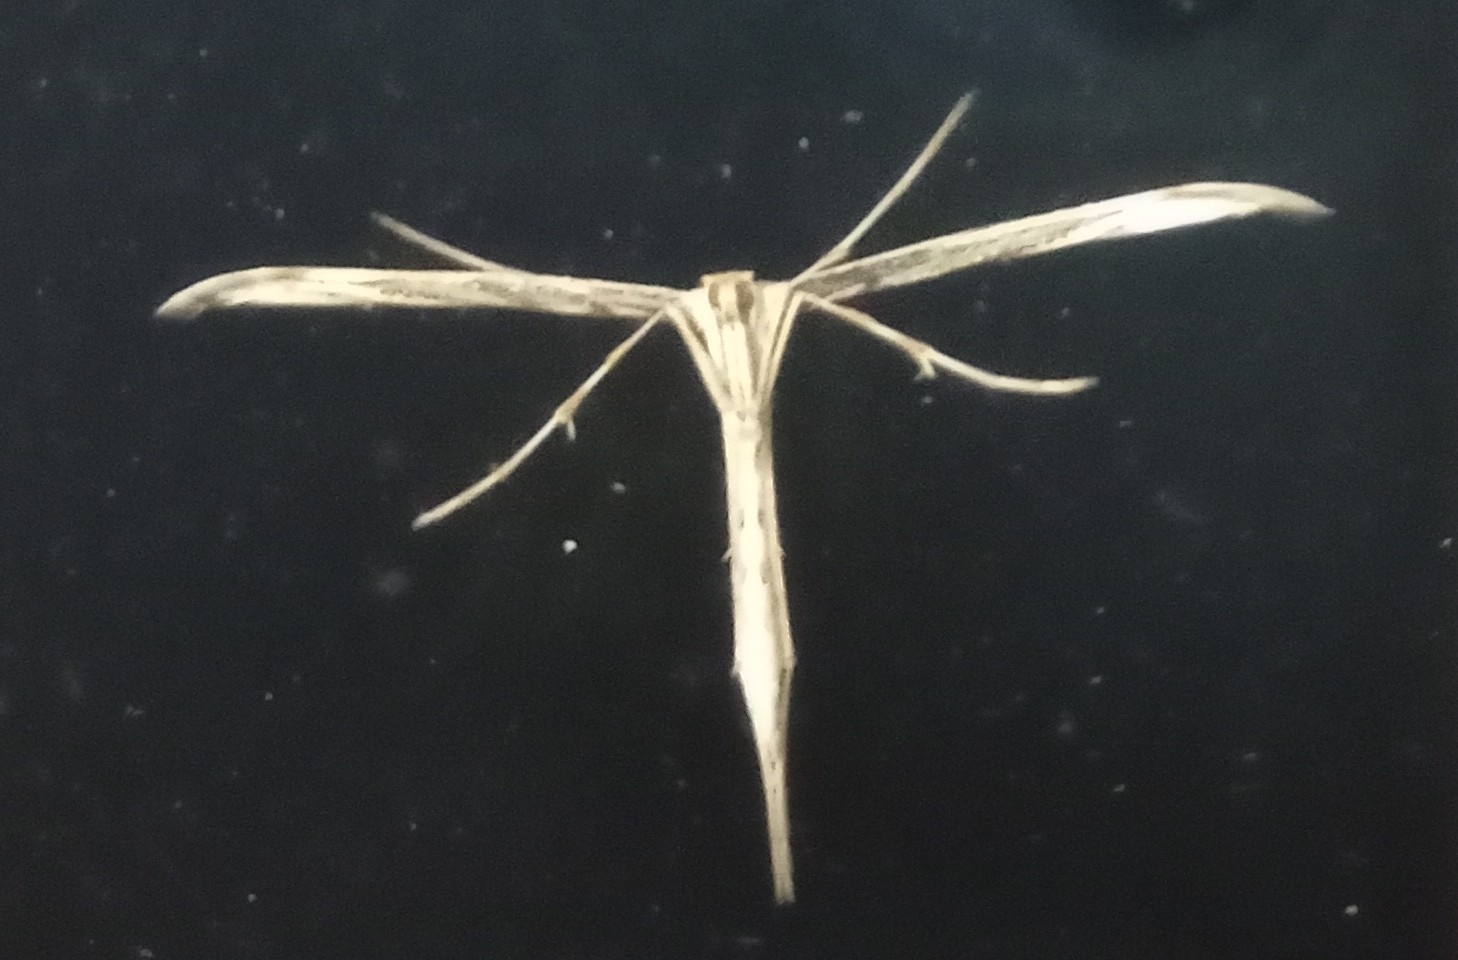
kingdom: Animalia
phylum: Arthropoda
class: Insecta
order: Lepidoptera
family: Pterophoridae
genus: Emmelina
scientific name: Emmelina monodactyla
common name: Common plume
